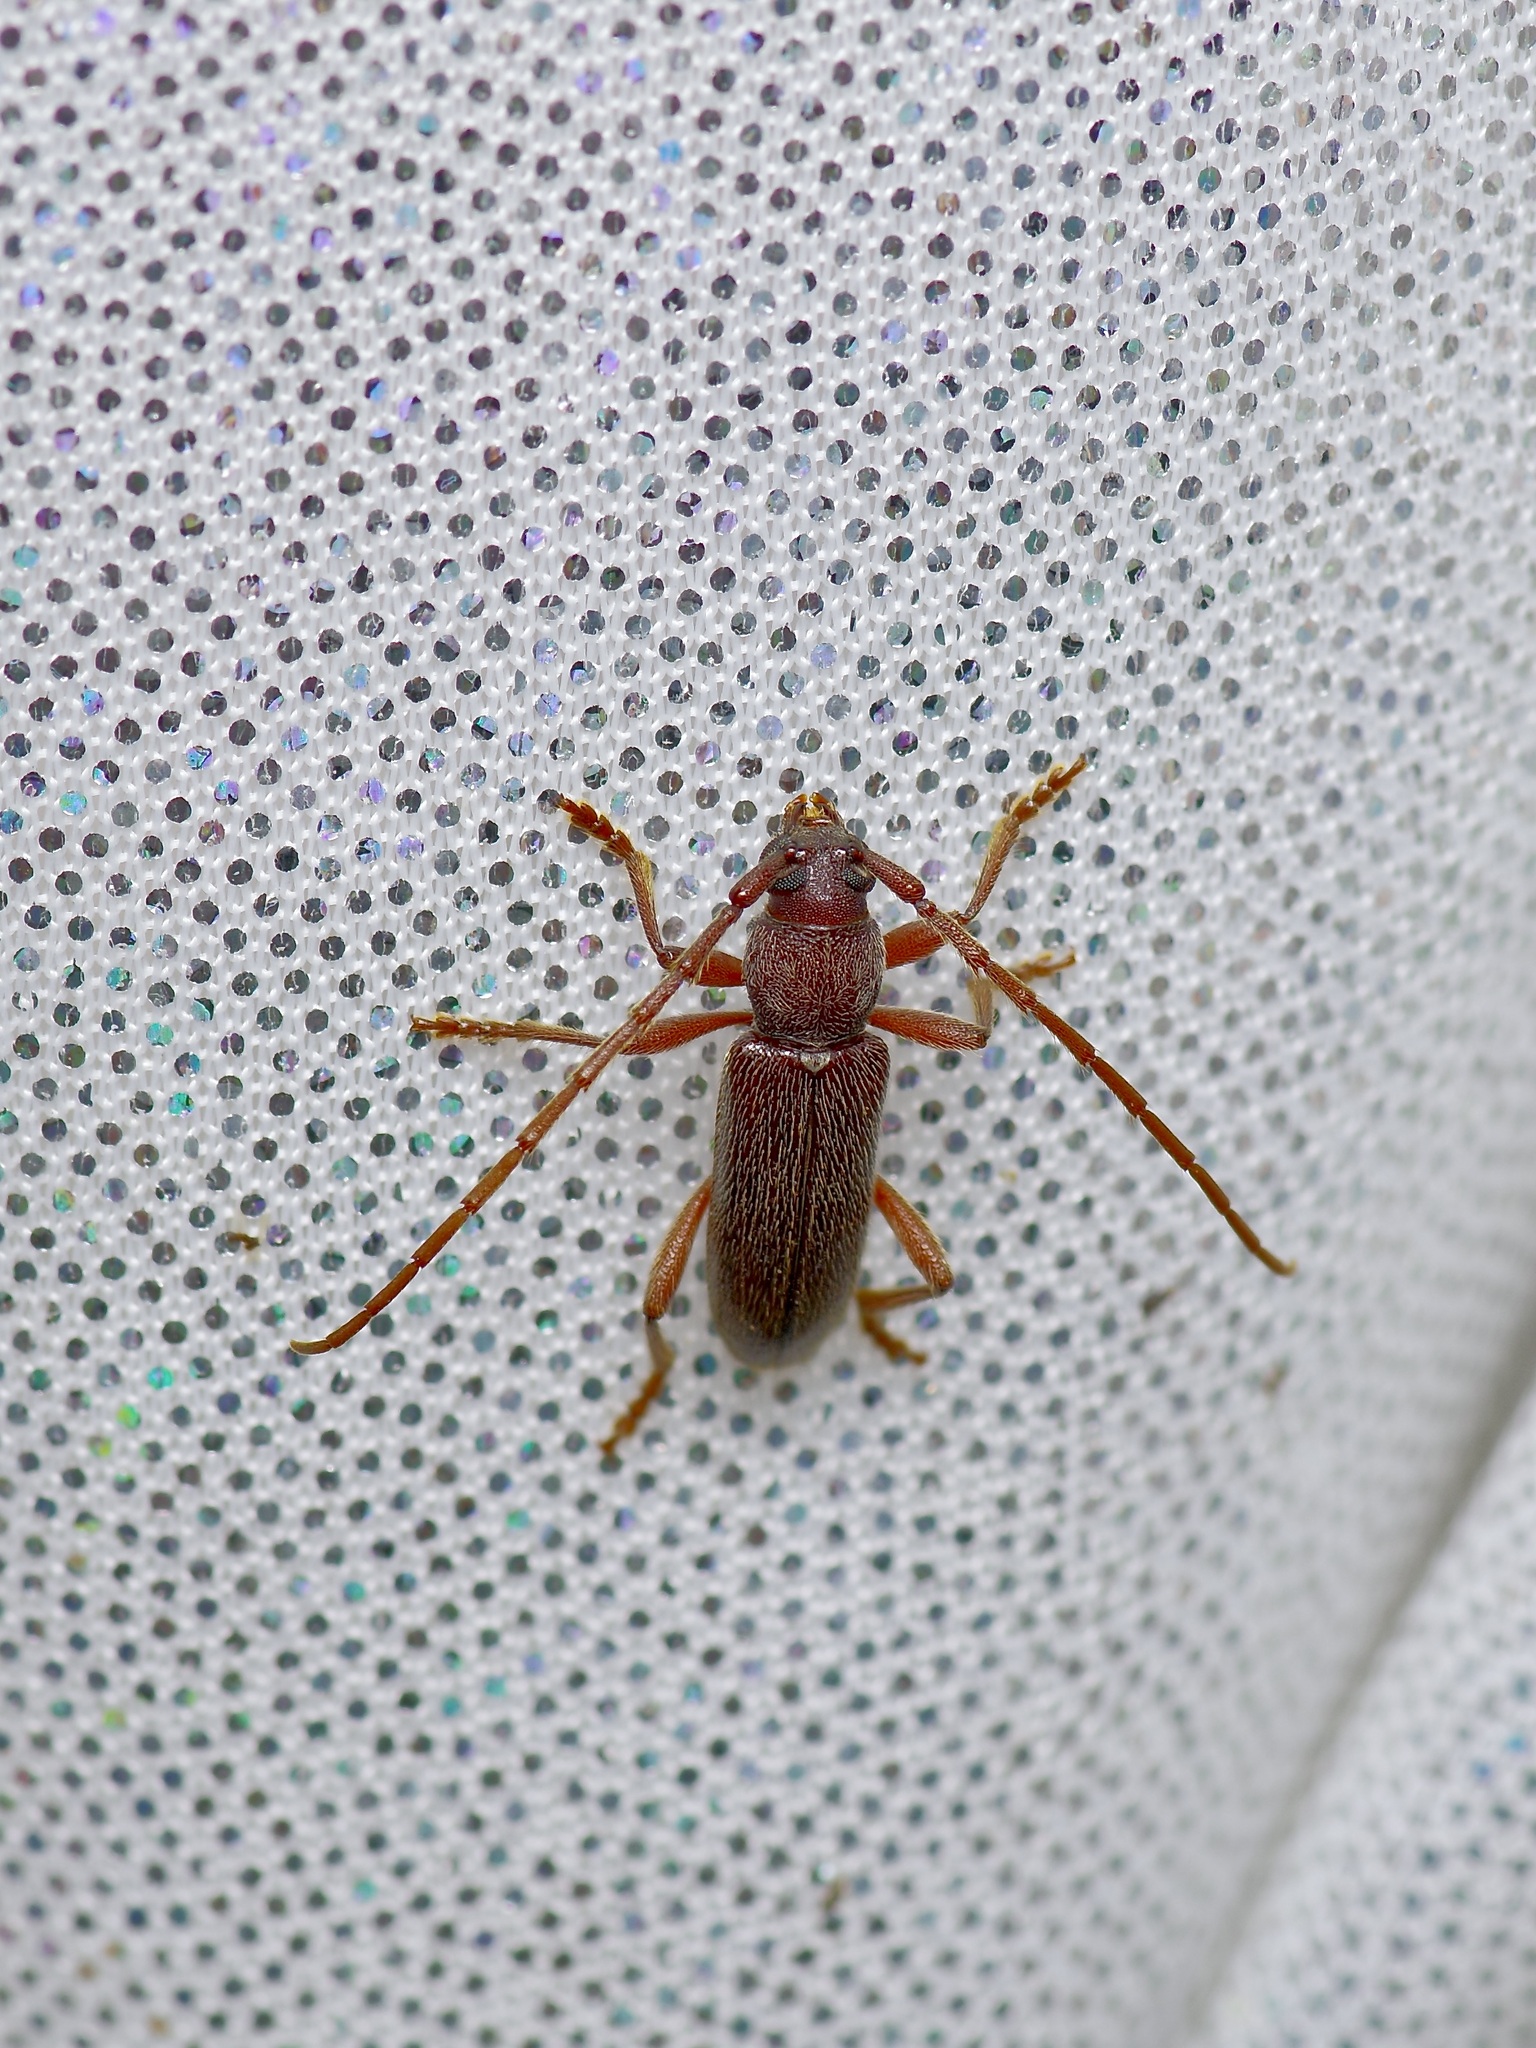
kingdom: Animalia
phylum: Arthropoda
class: Insecta
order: Coleoptera
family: Cerambycidae
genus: Anelaphus
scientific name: Anelaphus moestus
